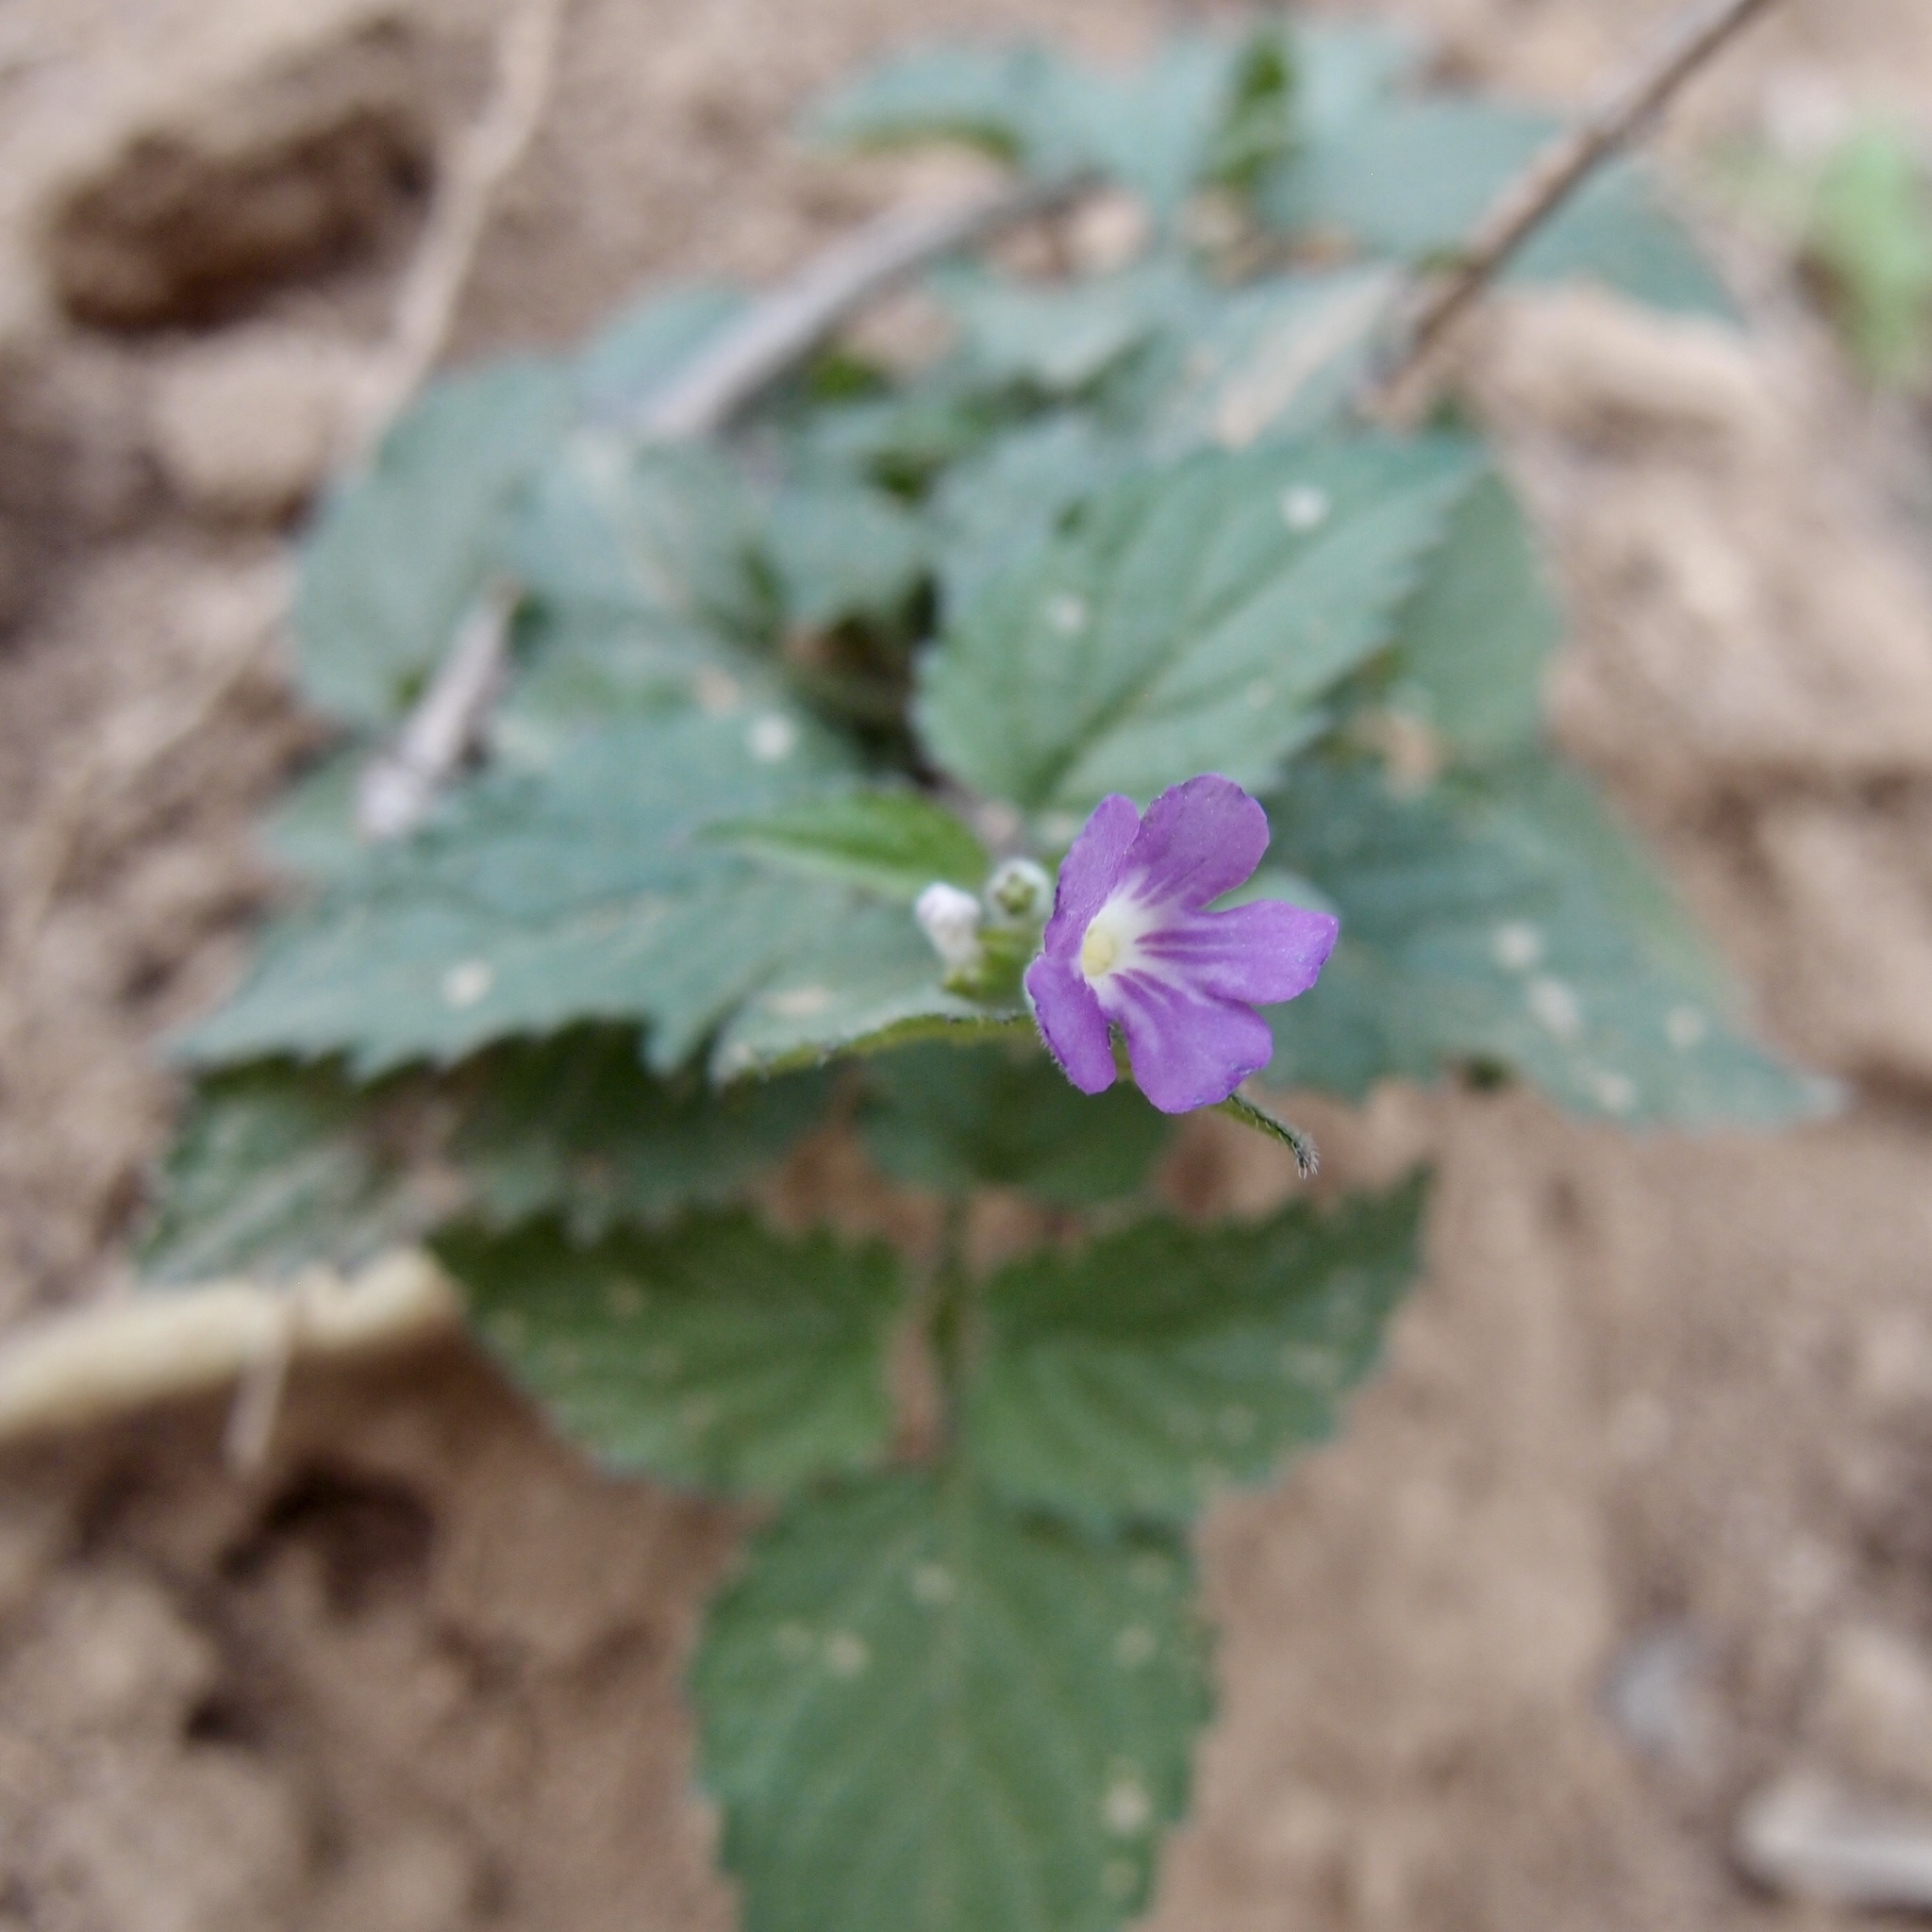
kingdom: Plantae
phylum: Tracheophyta
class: Magnoliopsida
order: Lamiales
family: Verbenaceae
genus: Priva
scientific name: Priva lappulacea
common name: Fasten-'pon-coat
